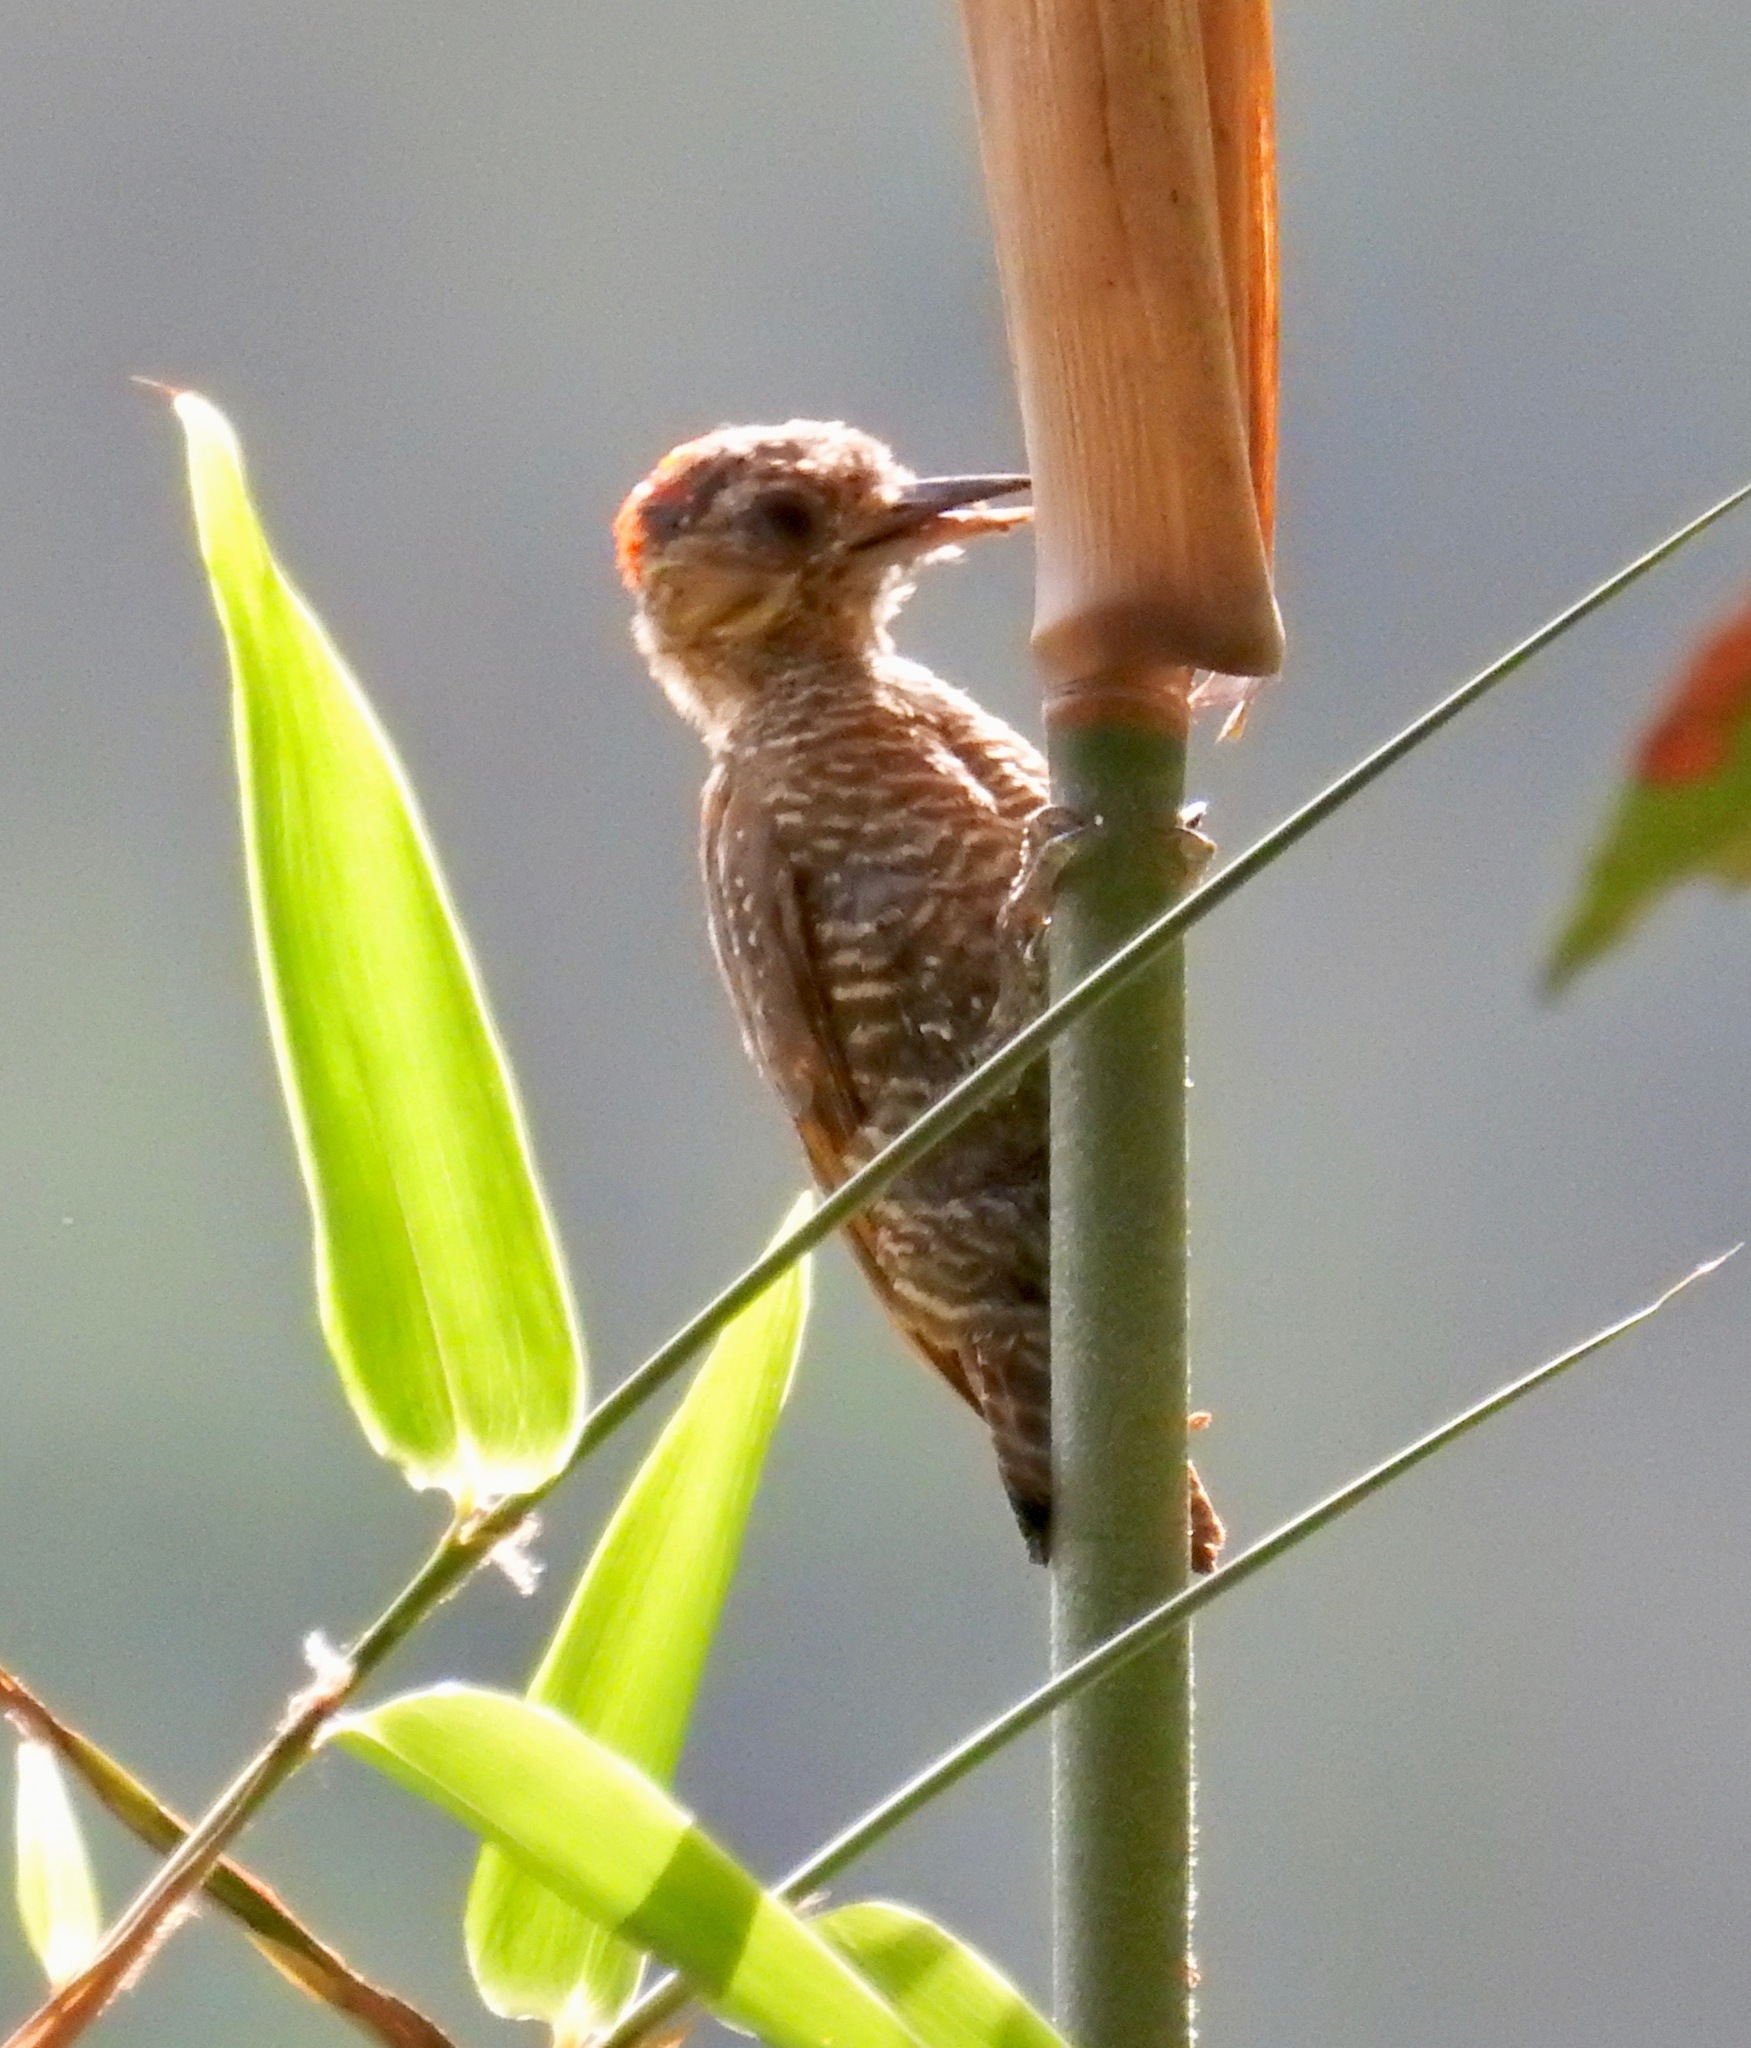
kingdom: Animalia
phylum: Chordata
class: Aves
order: Piciformes
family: Picidae
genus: Veniliornis
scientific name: Veniliornis passerinus
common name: Little woodpecker
